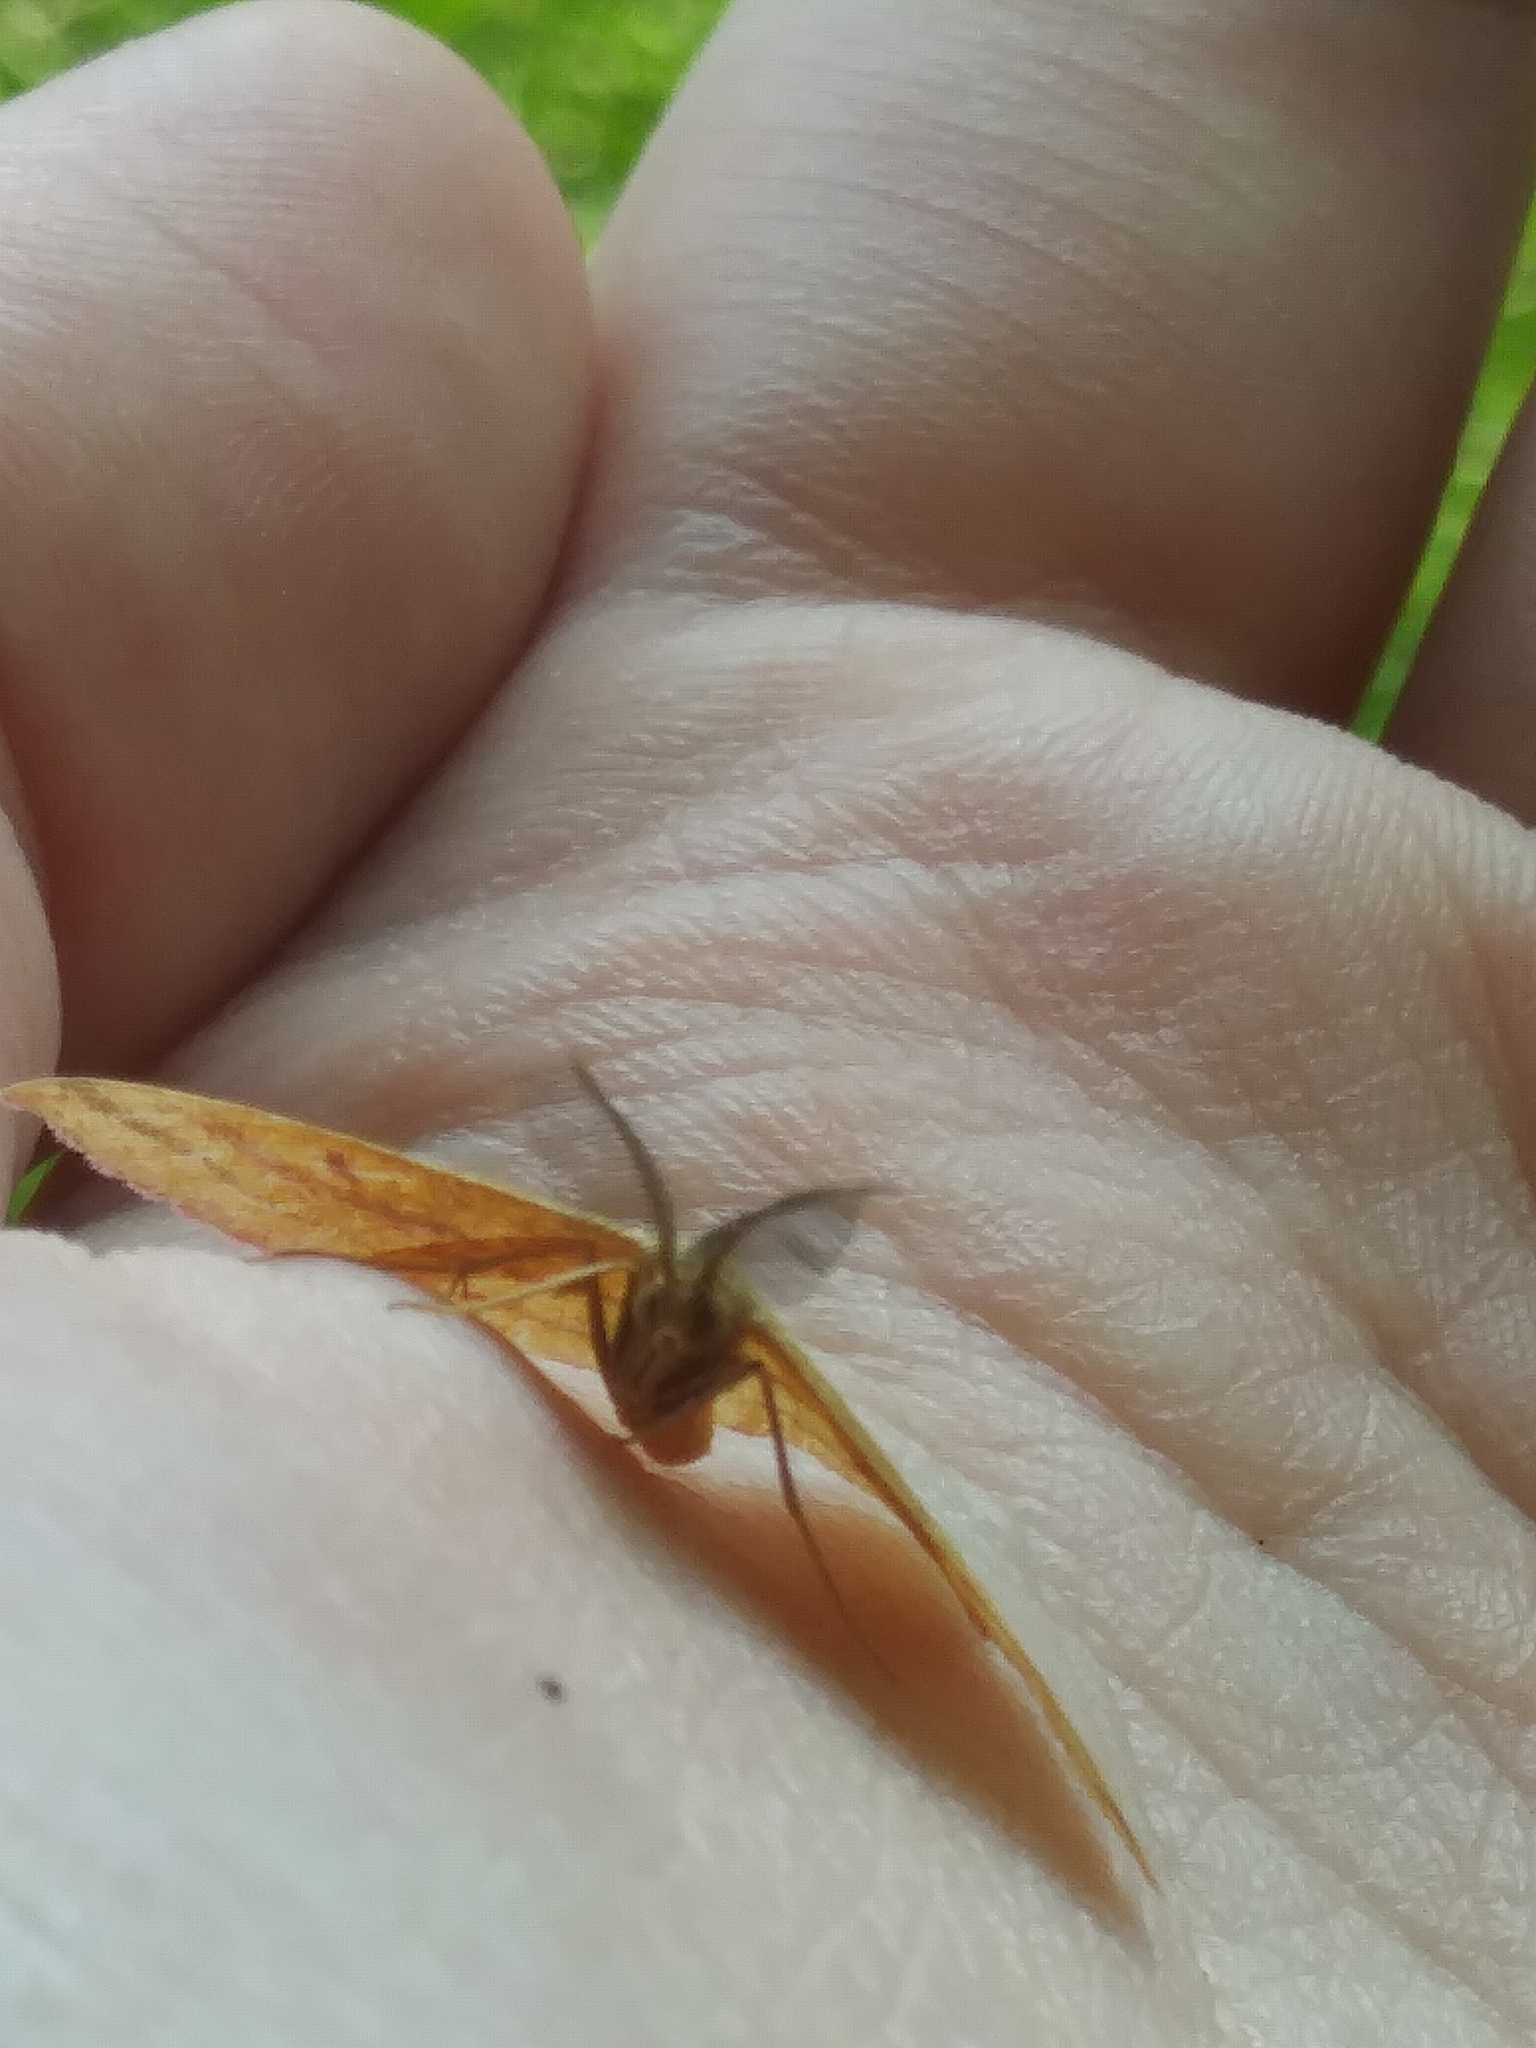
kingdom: Animalia
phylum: Arthropoda
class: Insecta
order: Lepidoptera
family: Geometridae
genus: Haematopis
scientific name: Haematopis grataria
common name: Chickweed geometer
